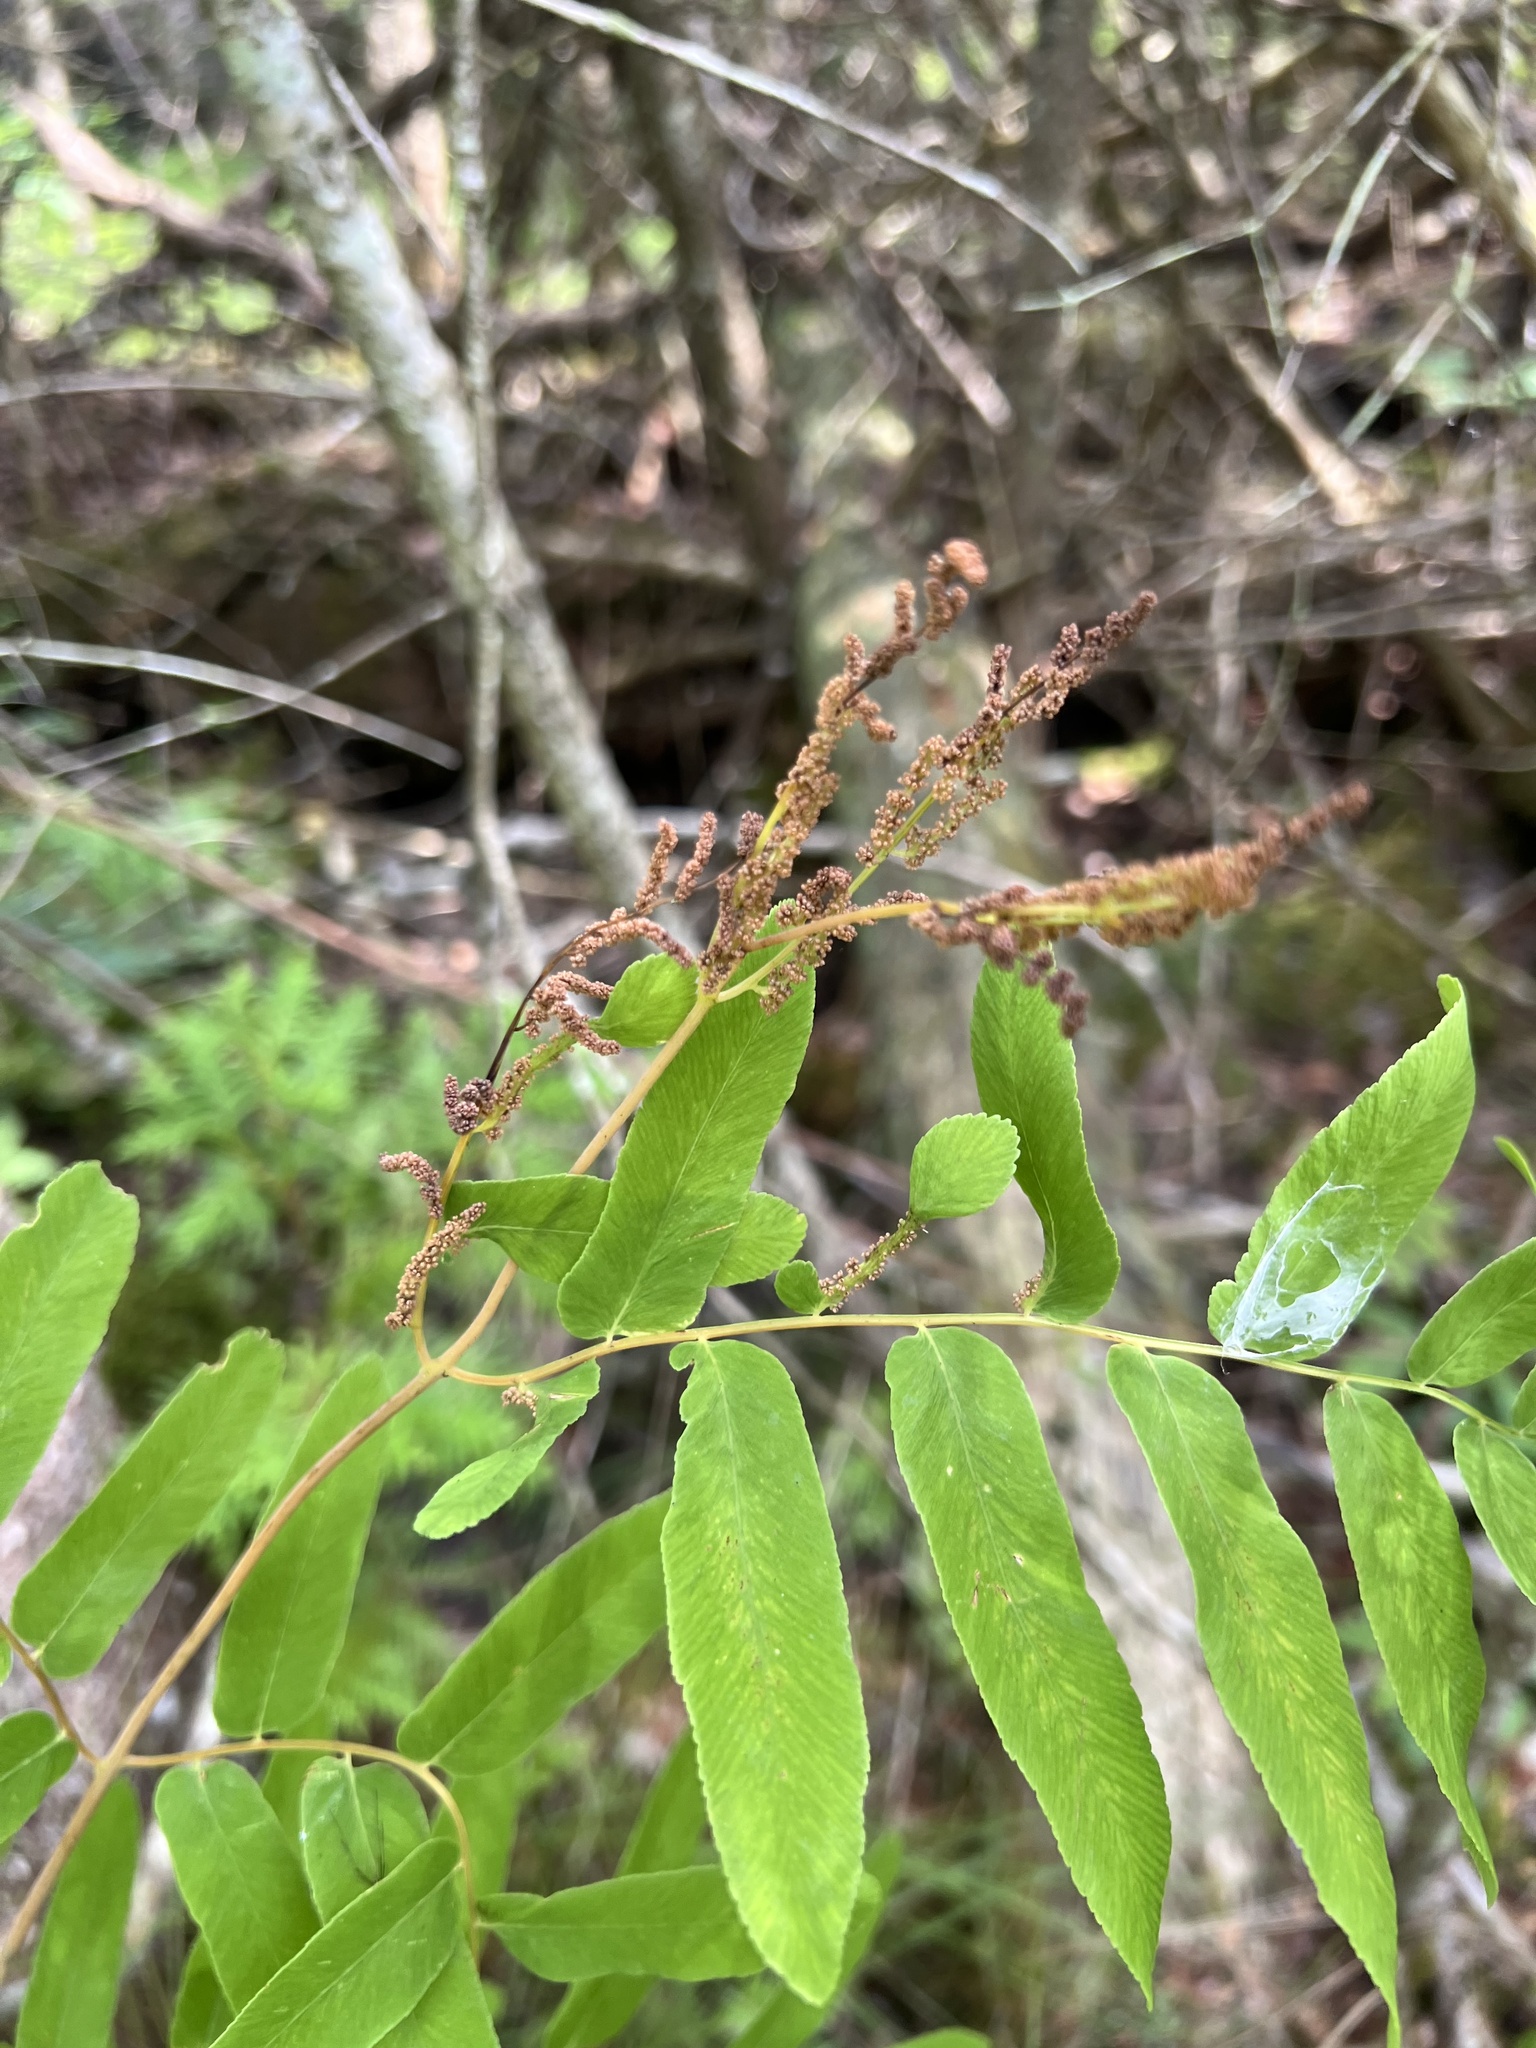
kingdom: Plantae
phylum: Tracheophyta
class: Polypodiopsida
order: Osmundales
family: Osmundaceae
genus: Osmunda
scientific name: Osmunda spectabilis
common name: American royal fern
